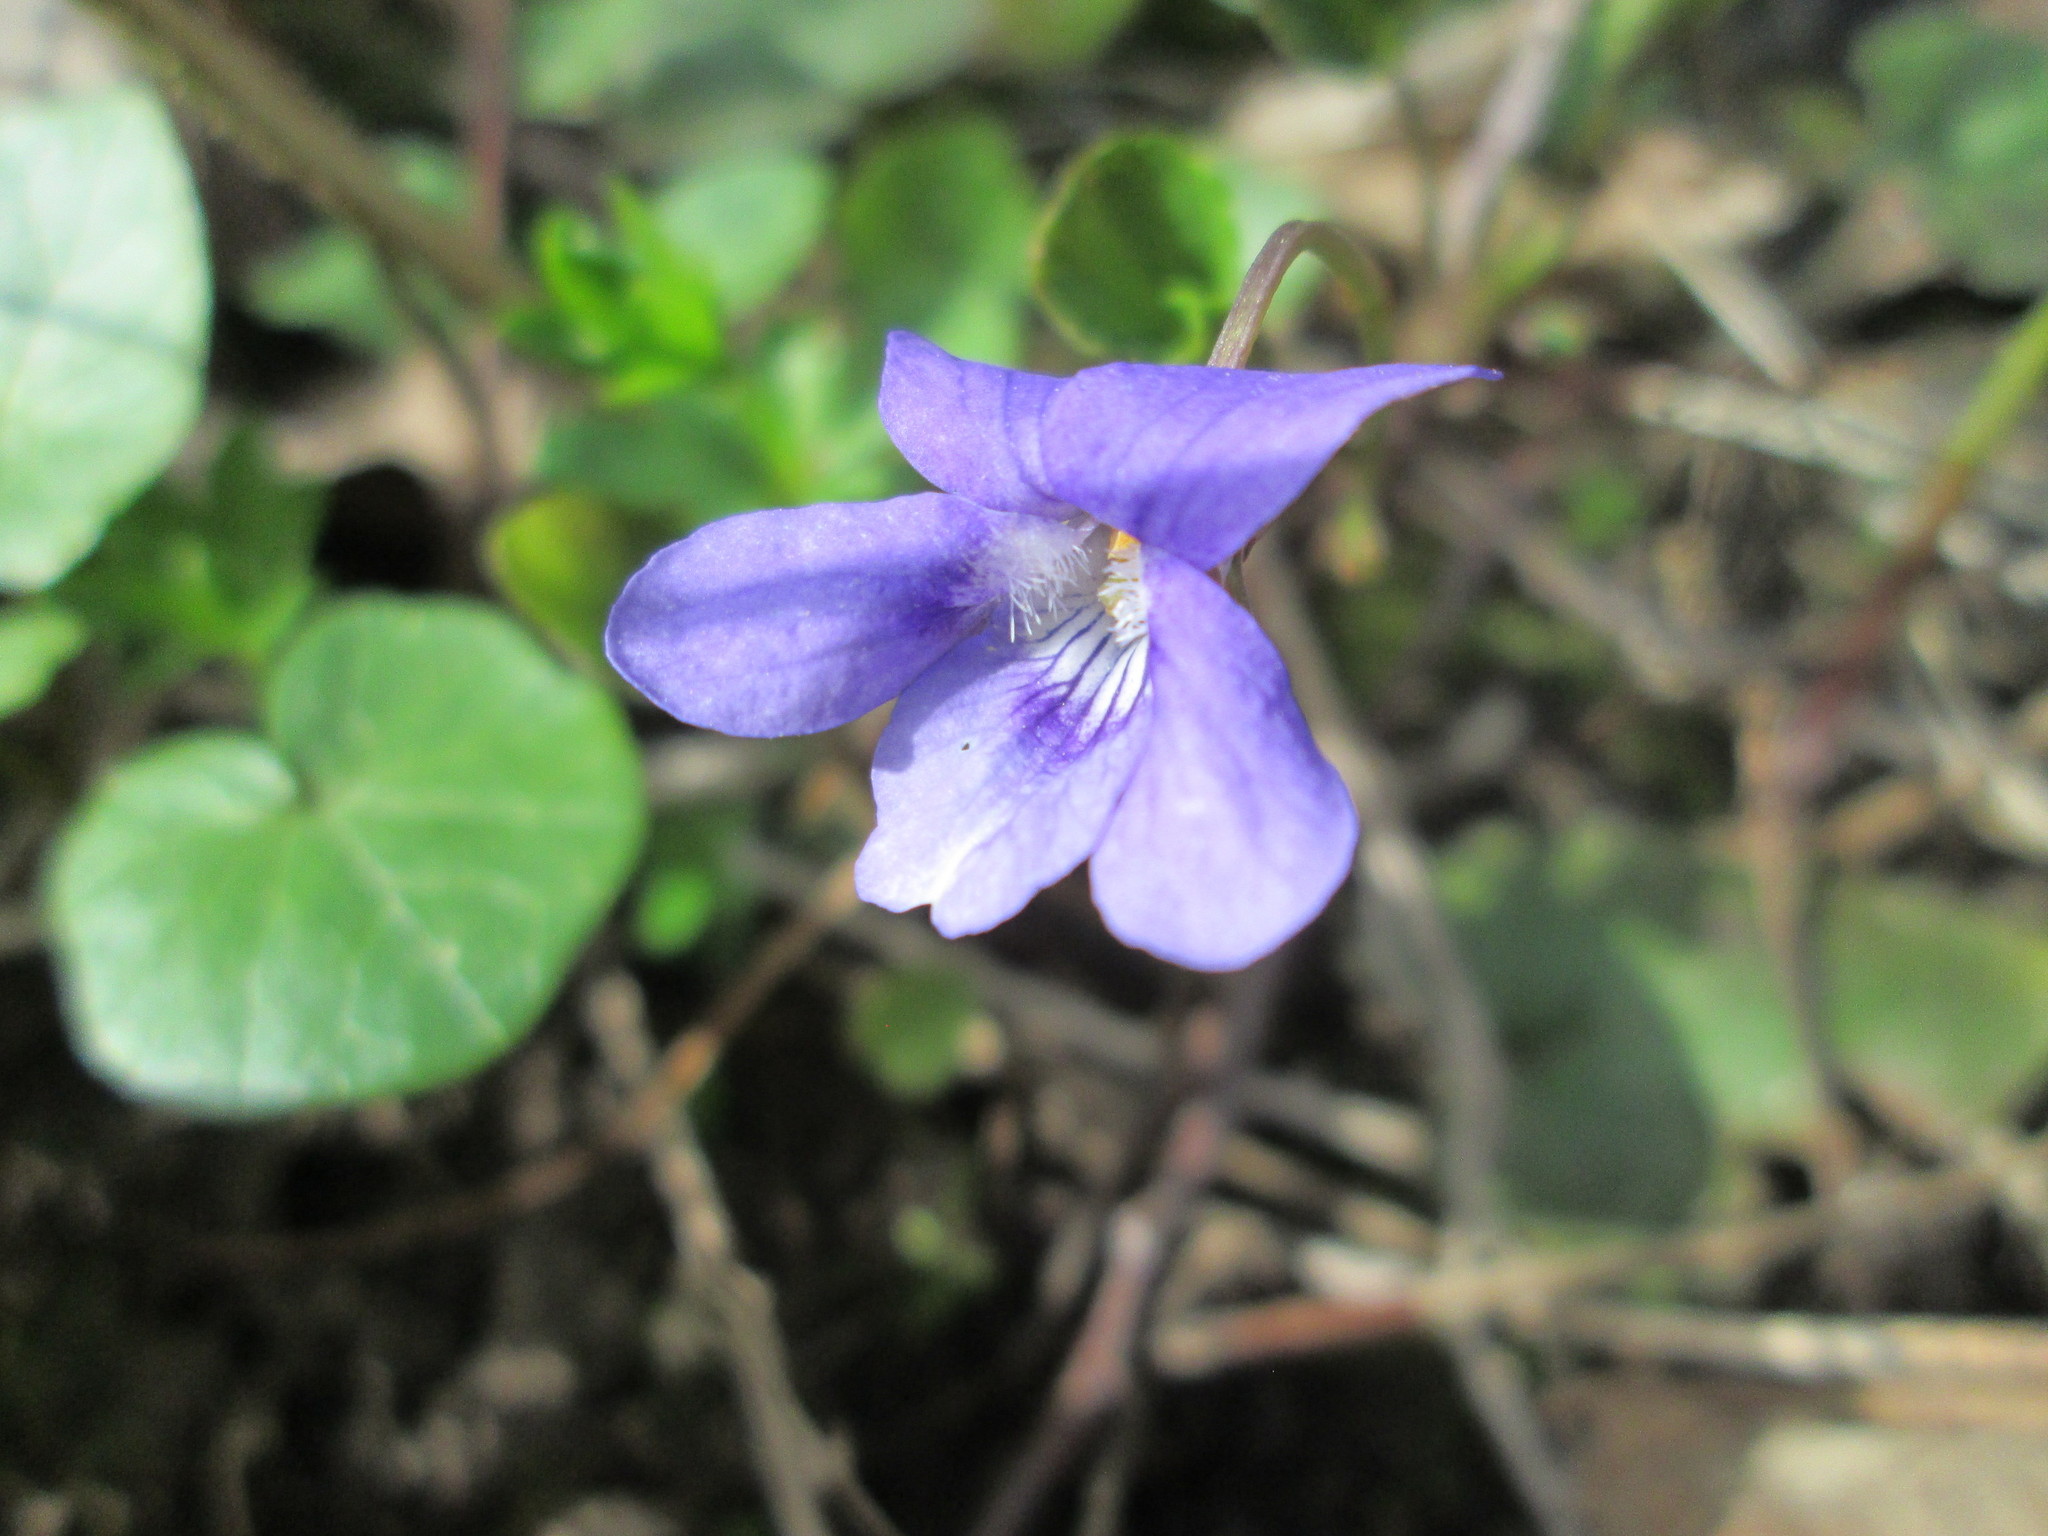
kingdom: Plantae
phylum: Tracheophyta
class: Magnoliopsida
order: Malpighiales
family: Violaceae
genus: Viola
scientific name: Viola reichenbachiana
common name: Early dog-violet
